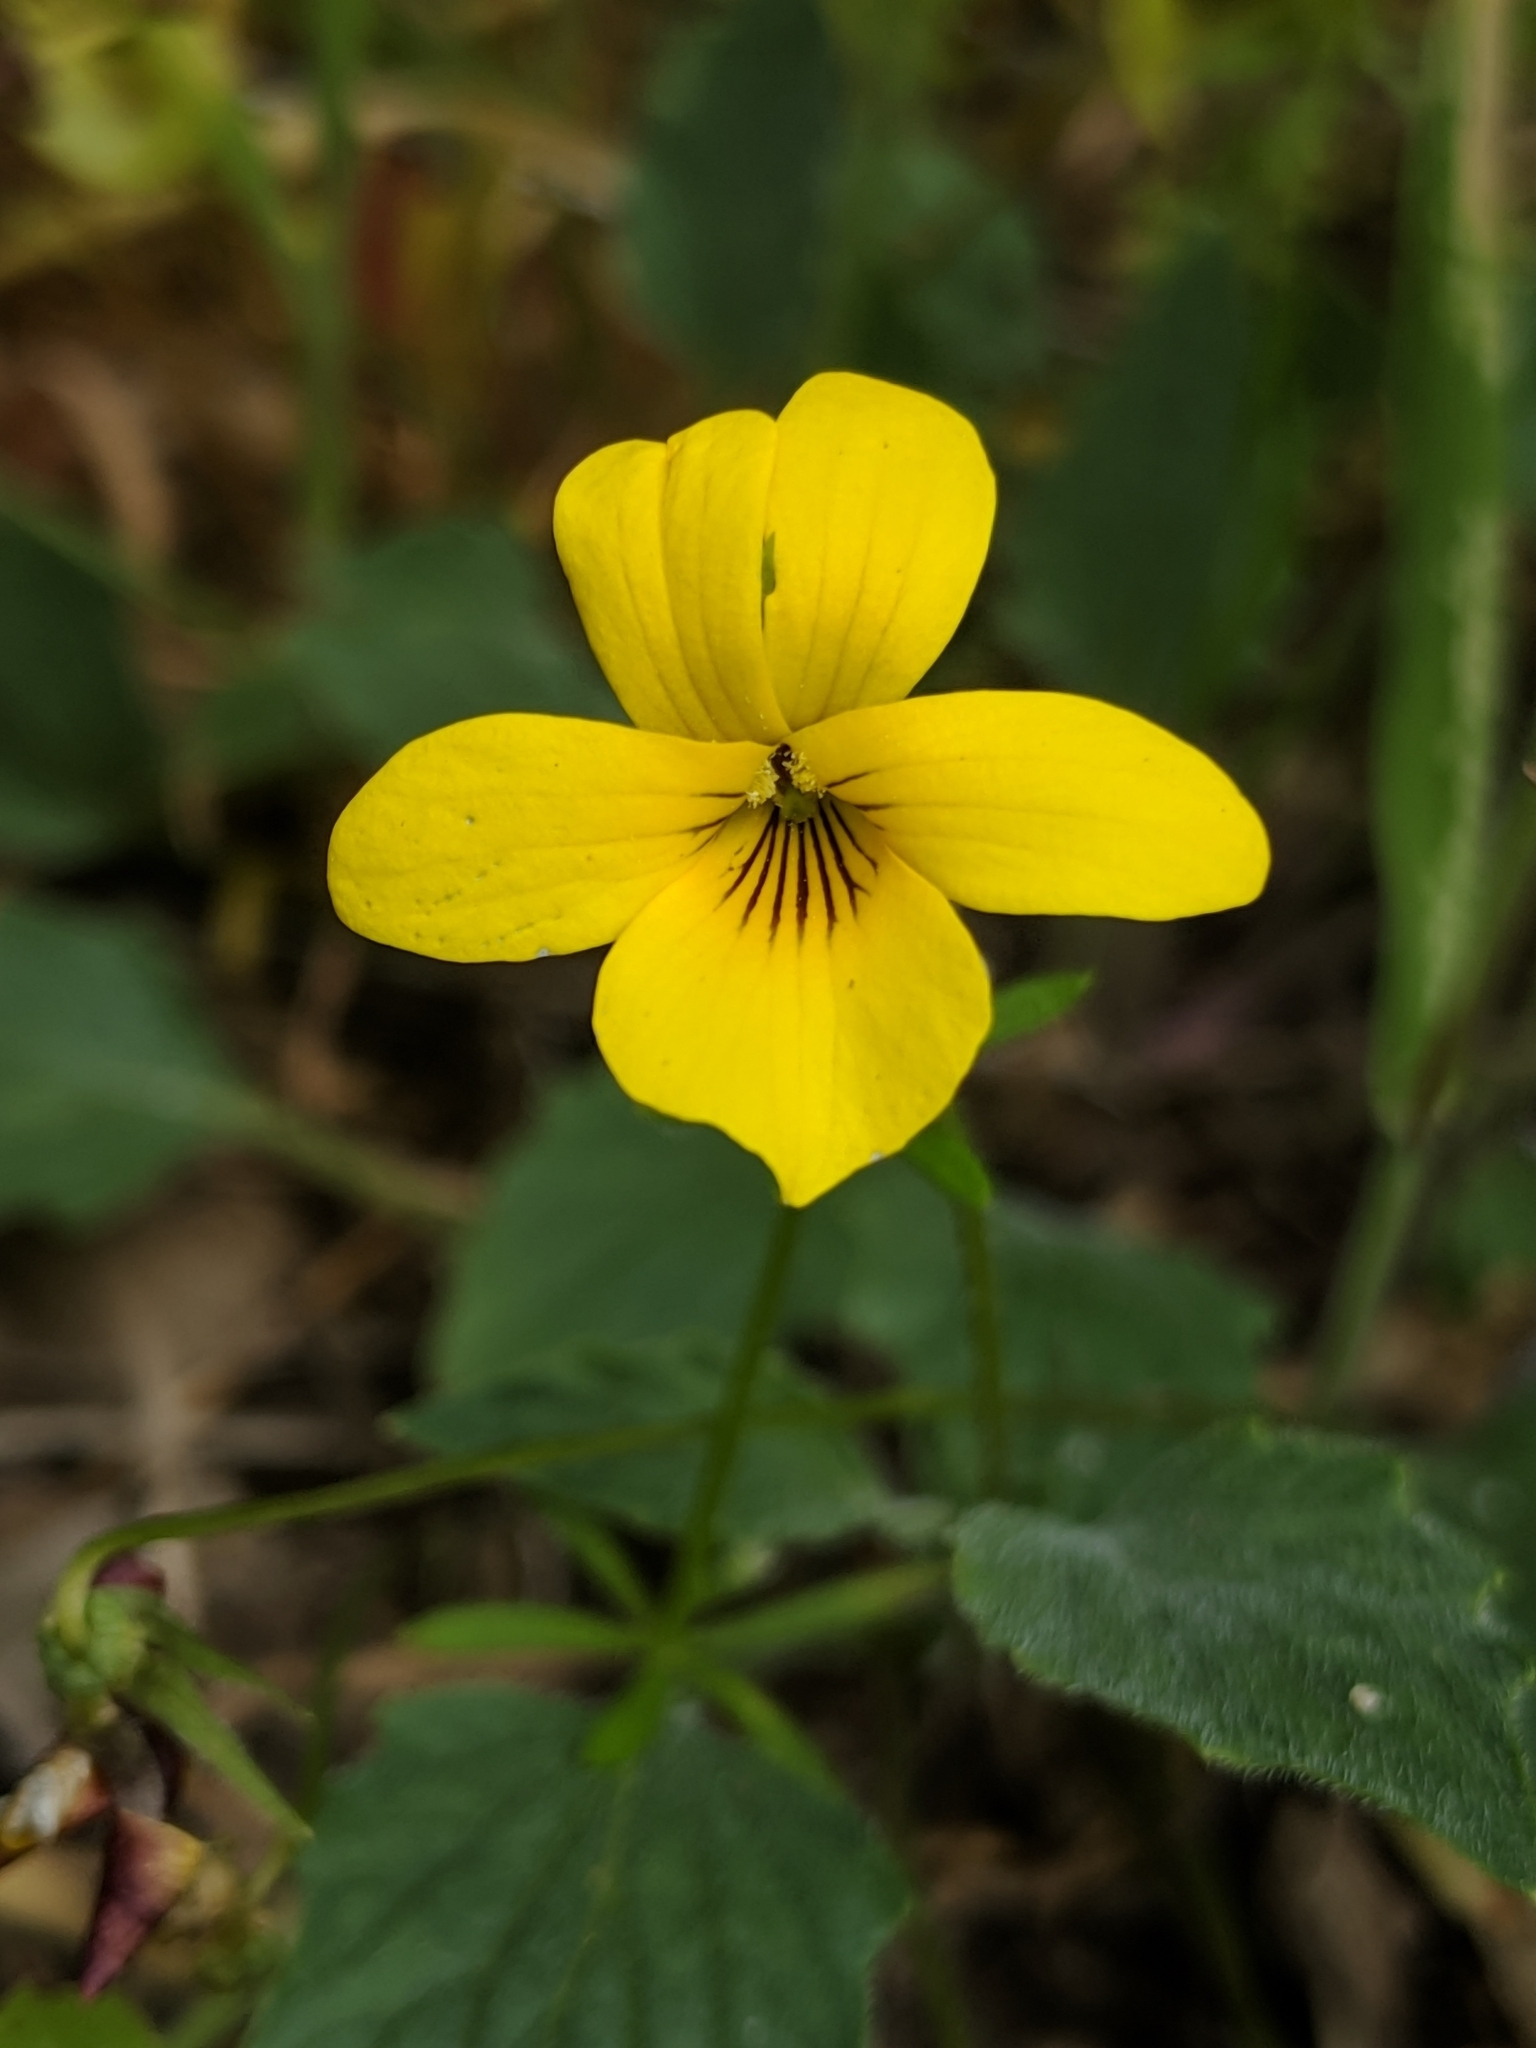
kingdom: Plantae
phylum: Tracheophyta
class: Magnoliopsida
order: Malpighiales
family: Violaceae
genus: Viola
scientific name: Viola quercetorum
